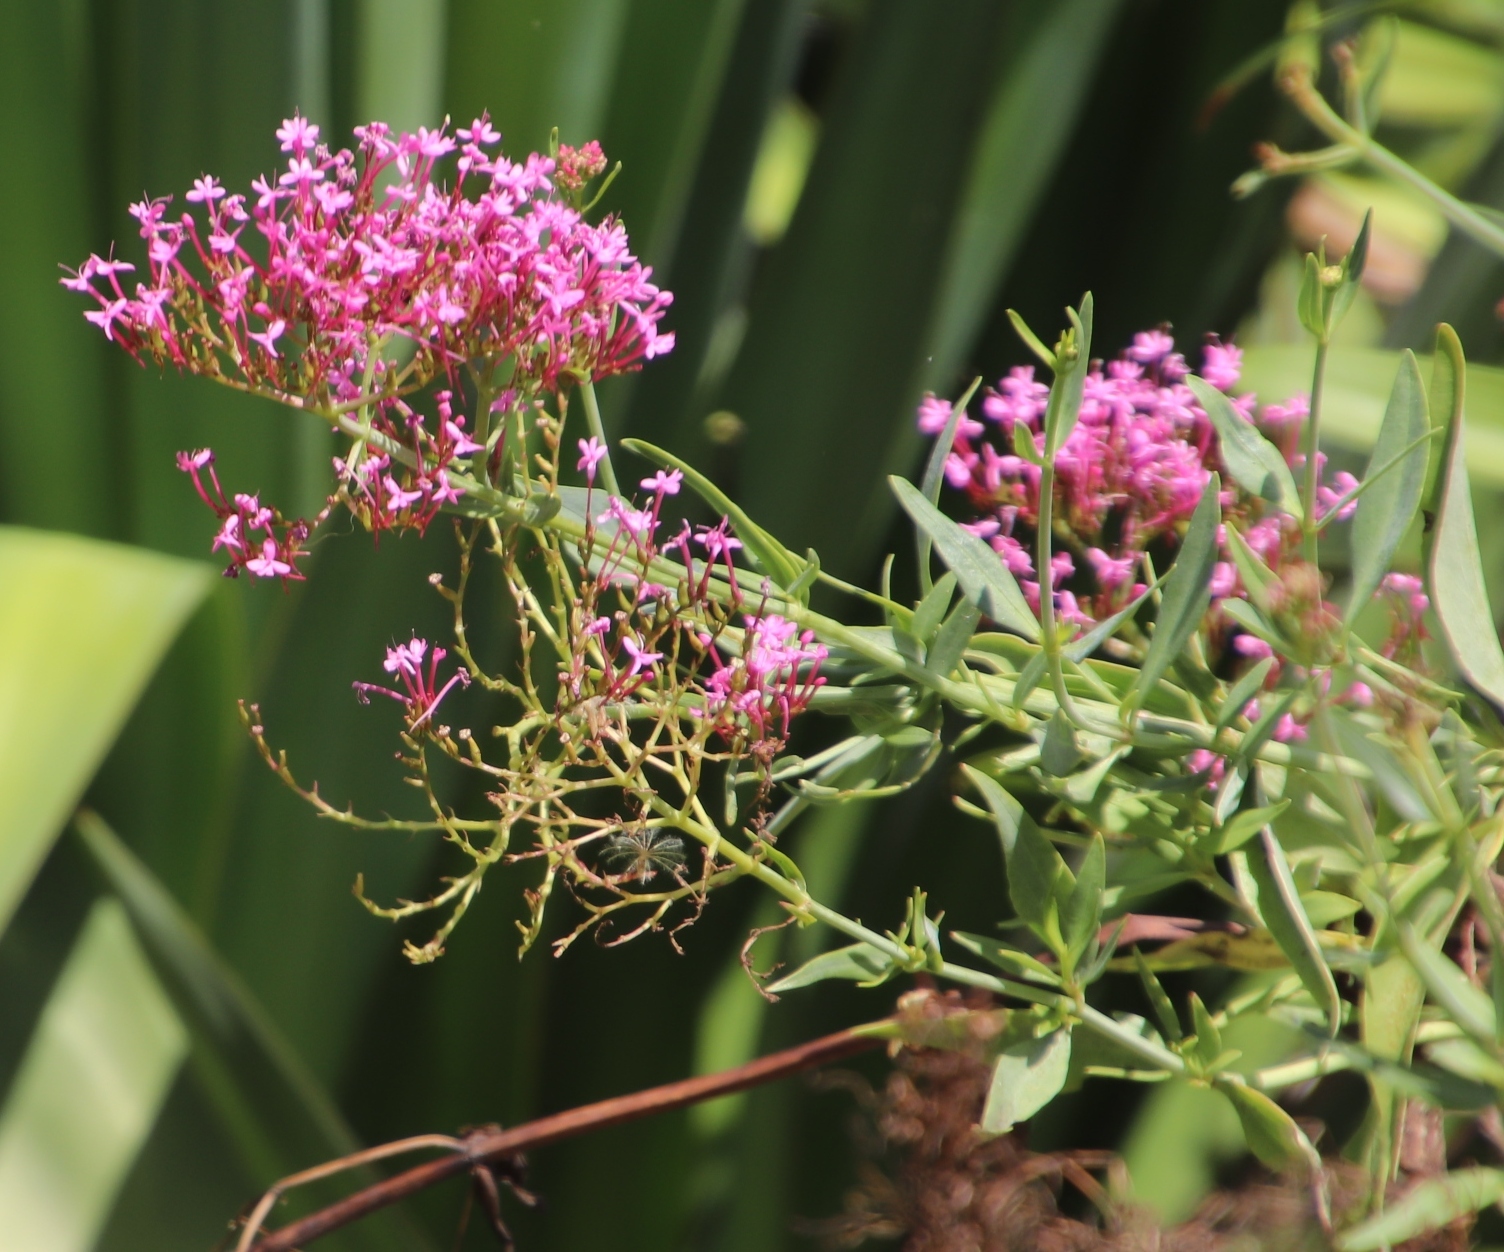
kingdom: Plantae
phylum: Tracheophyta
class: Magnoliopsida
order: Dipsacales
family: Caprifoliaceae
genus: Centranthus
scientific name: Centranthus ruber
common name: Red valerian
